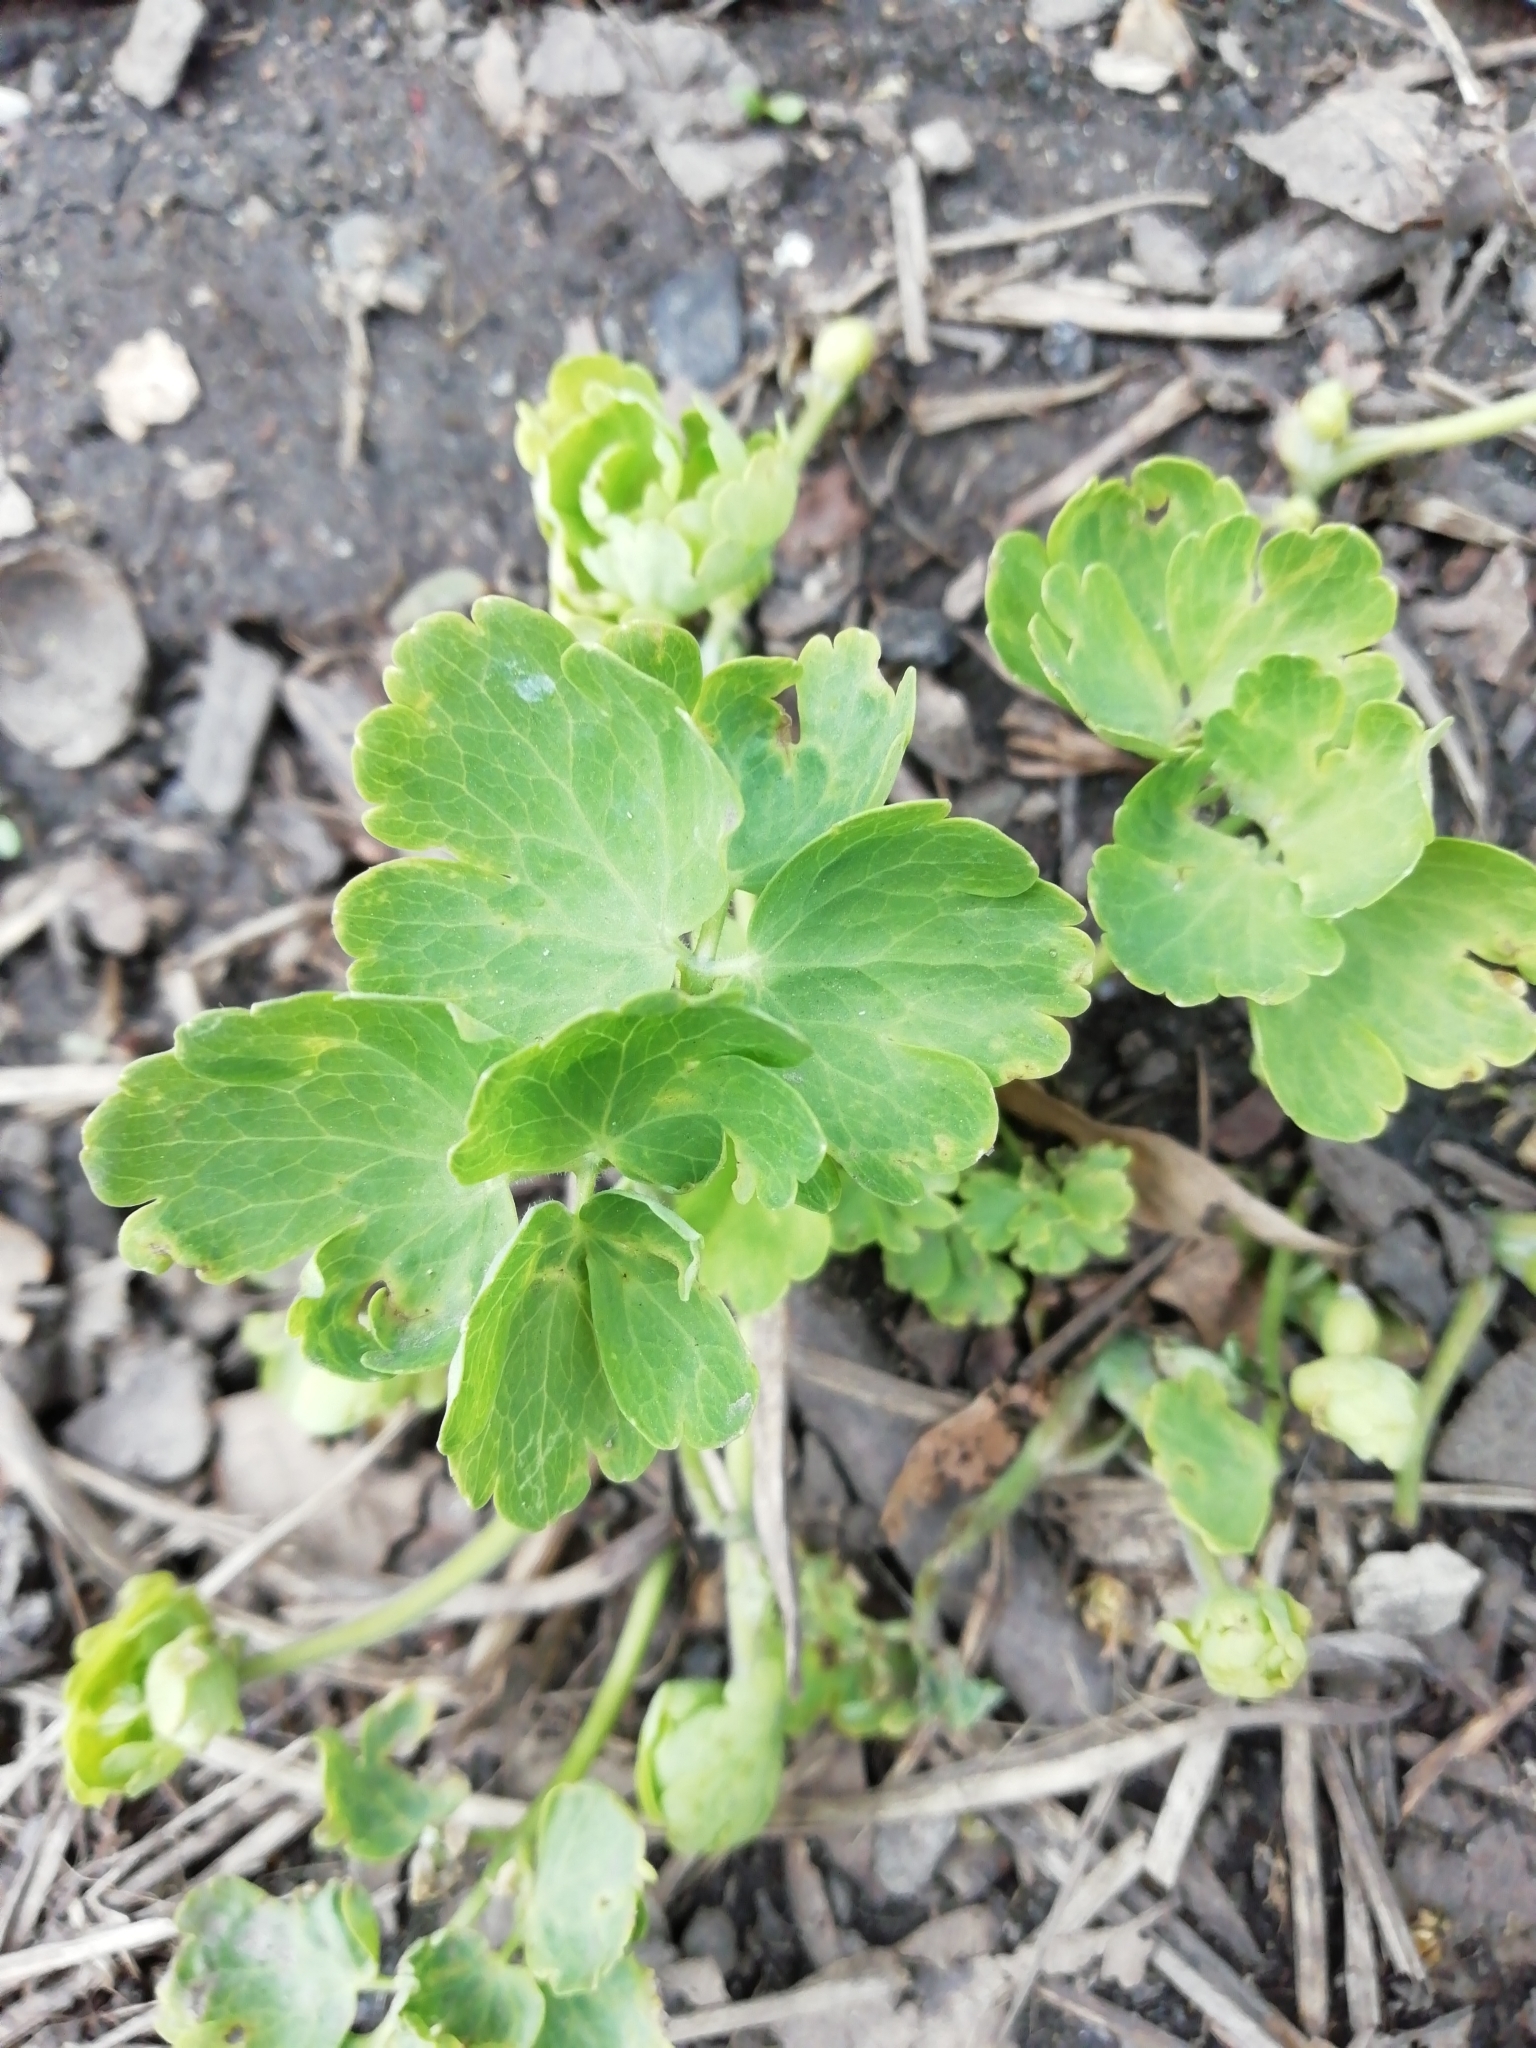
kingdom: Plantae
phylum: Tracheophyta
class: Magnoliopsida
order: Ranunculales
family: Ranunculaceae
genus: Aquilegia
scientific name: Aquilegia vulgaris
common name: Columbine
